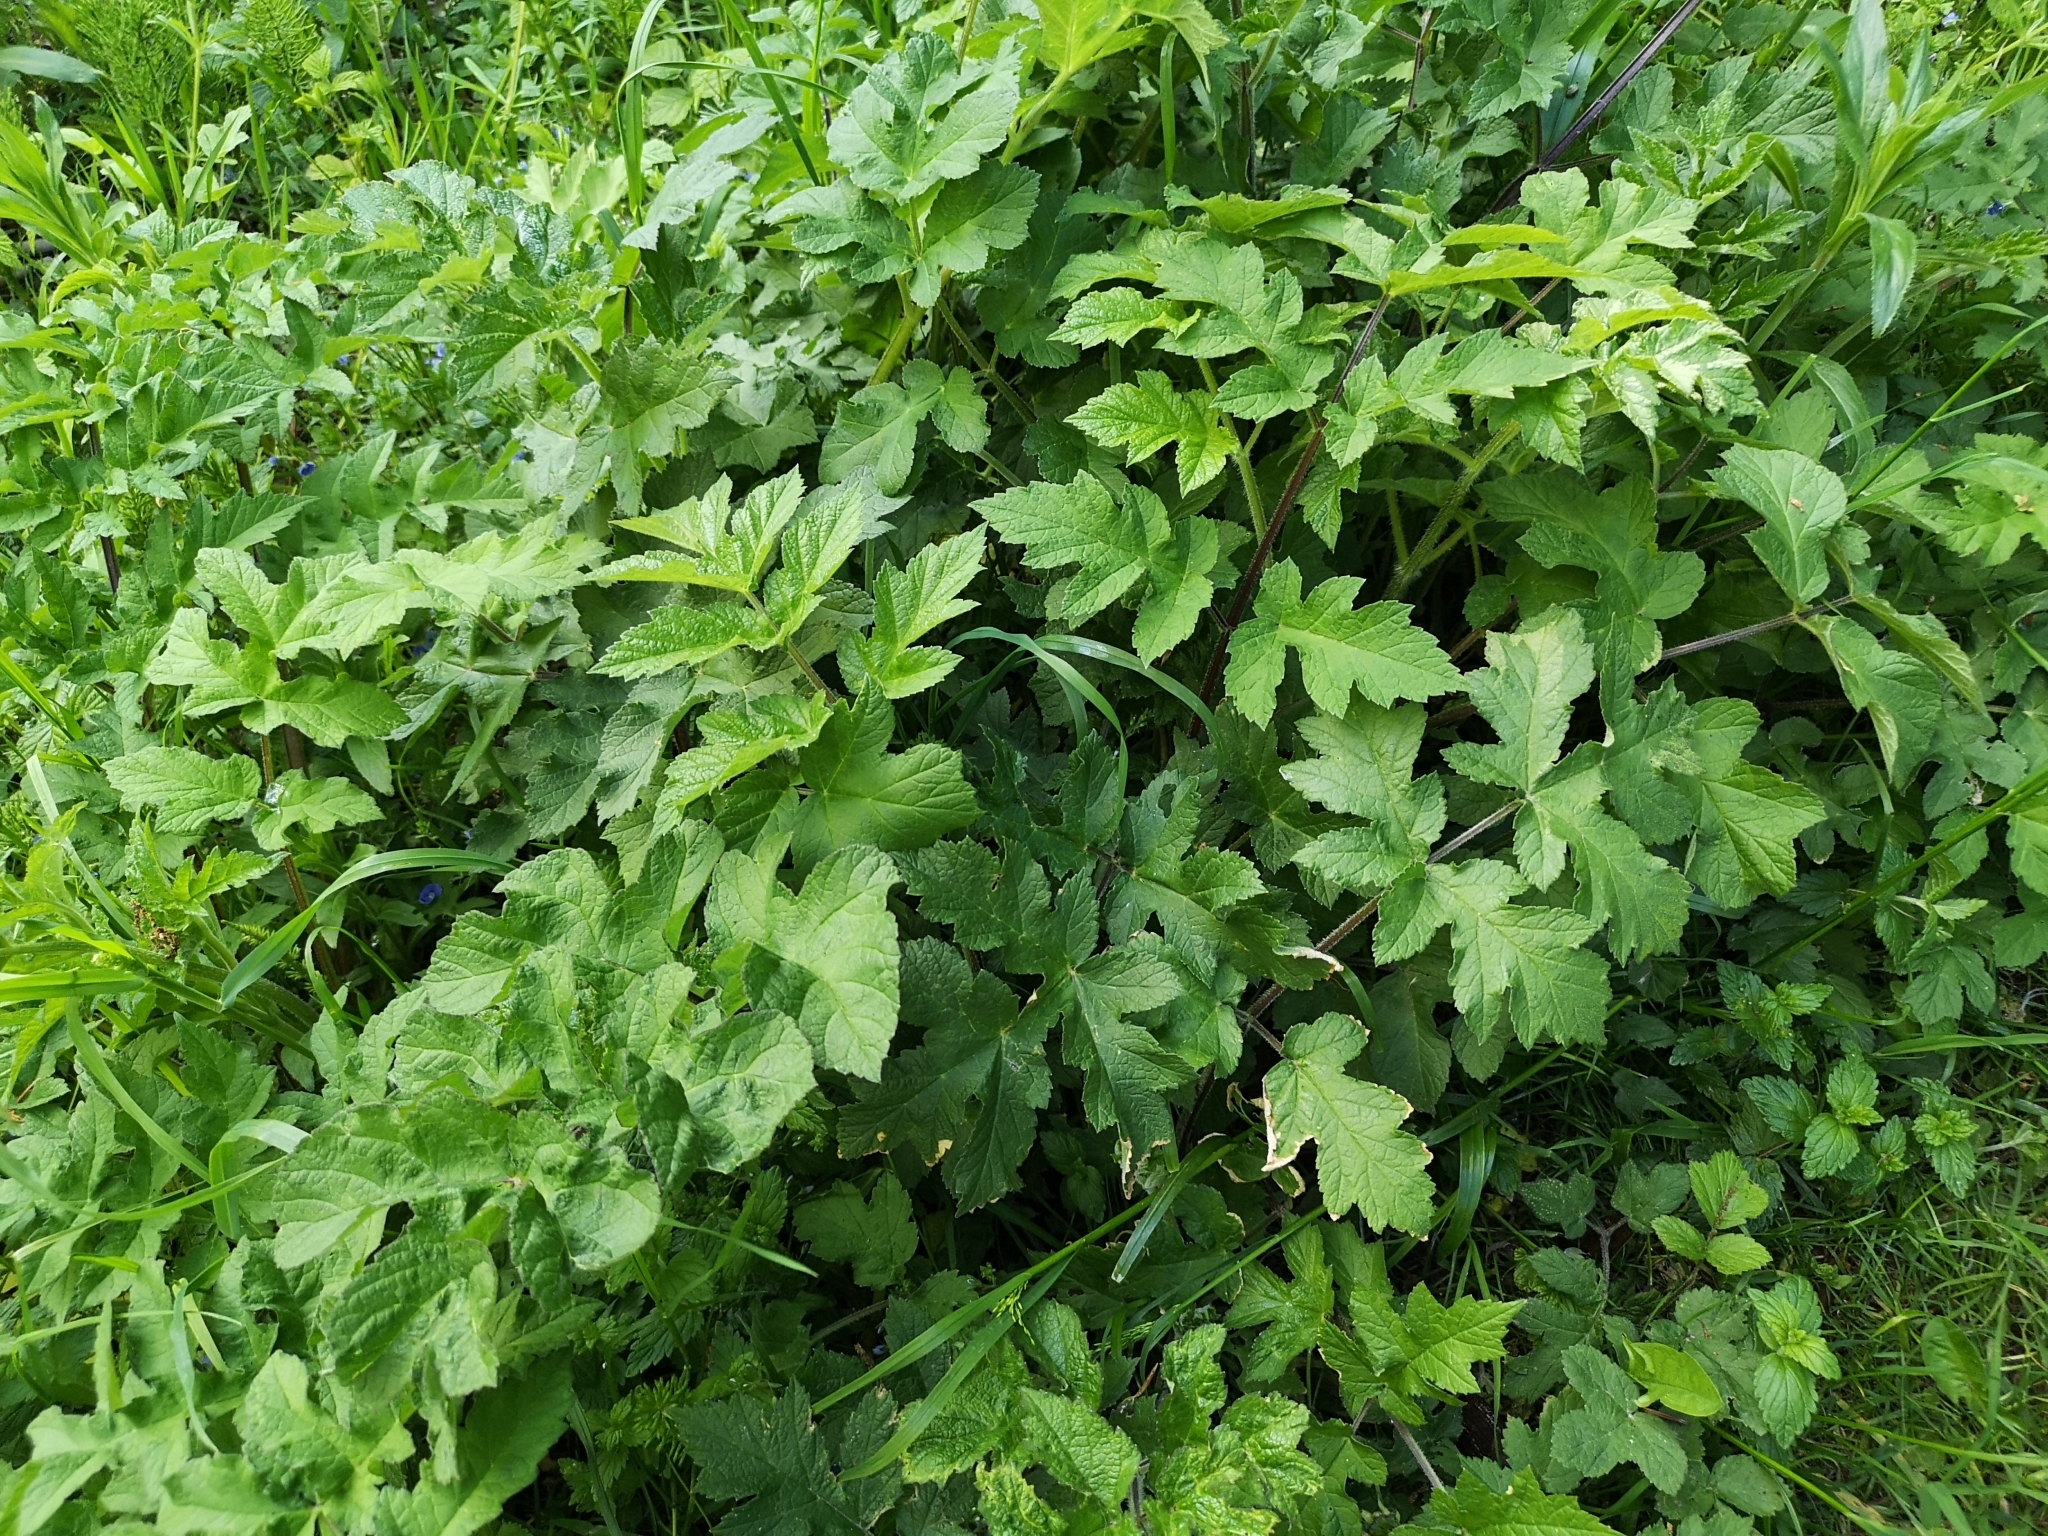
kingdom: Plantae
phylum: Tracheophyta
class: Magnoliopsida
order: Apiales
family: Apiaceae
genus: Heracleum
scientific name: Heracleum sphondylium
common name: Hogweed
